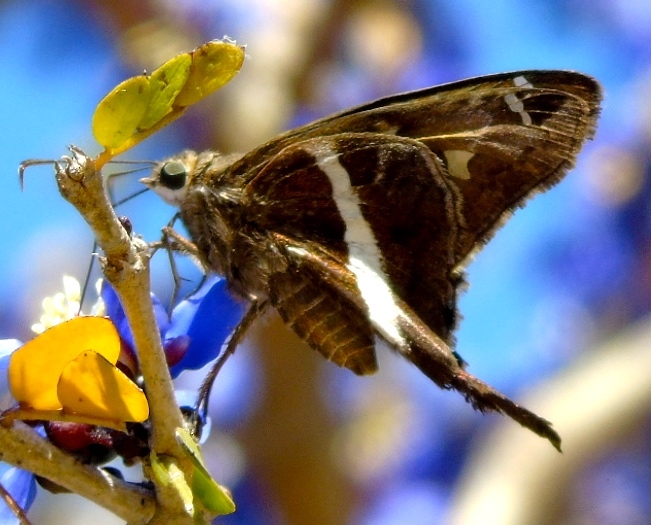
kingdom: Animalia
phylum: Arthropoda
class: Insecta
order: Lepidoptera
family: Hesperiidae
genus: Chioides
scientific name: Chioides catillus
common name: Silverbanded skipper
